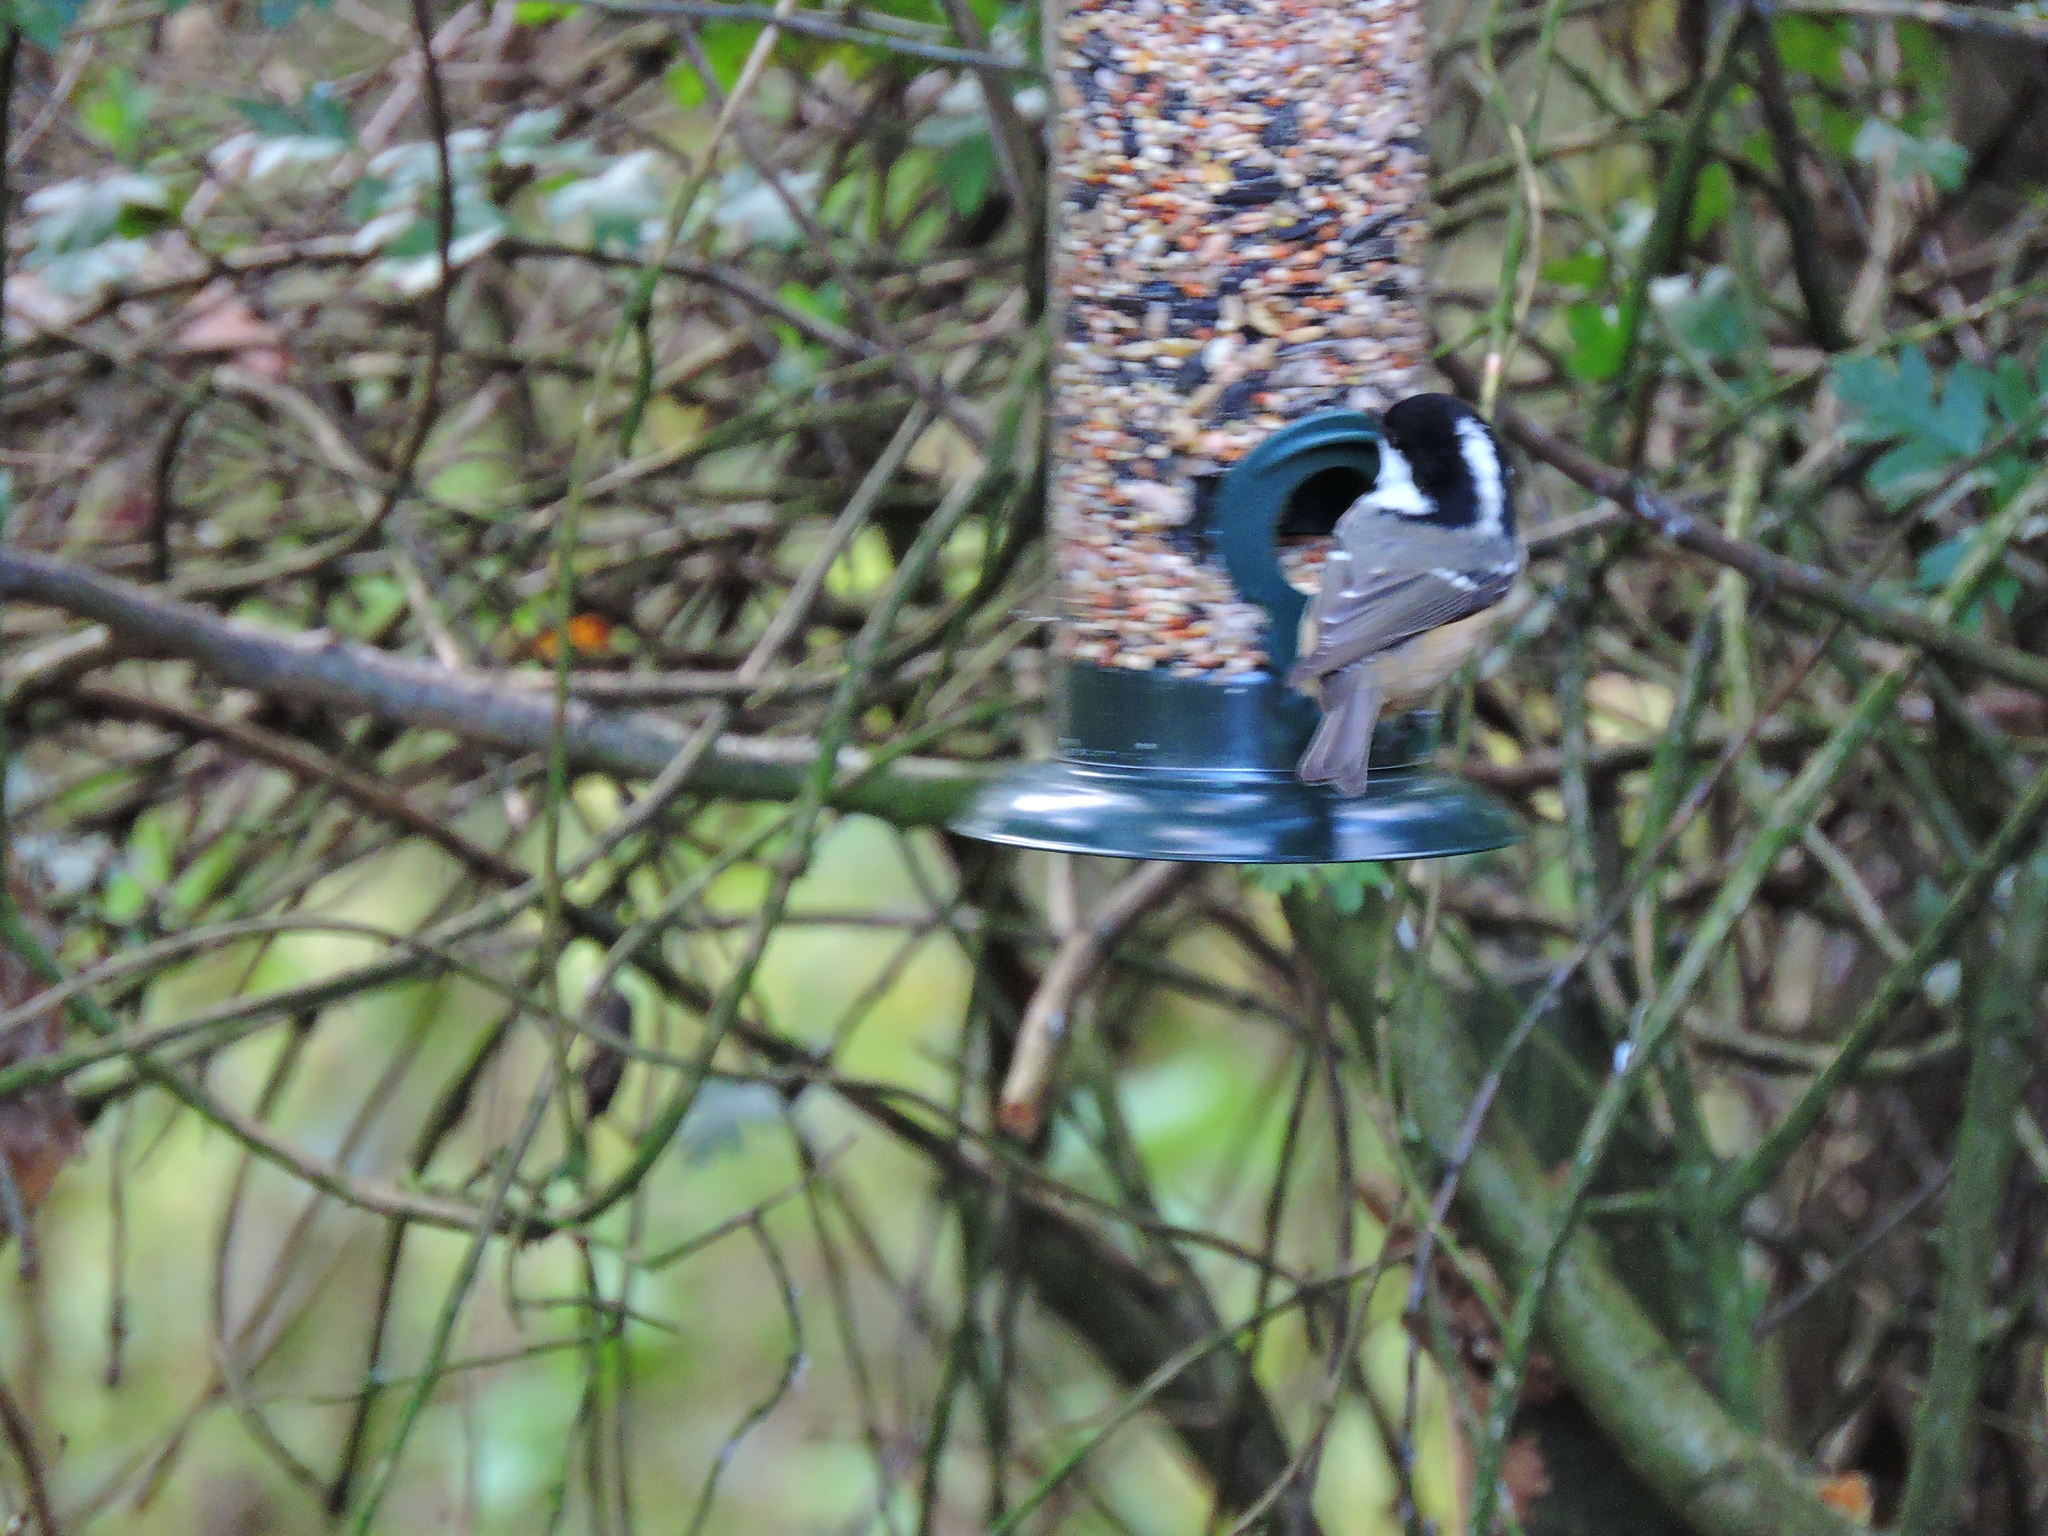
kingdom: Animalia
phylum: Chordata
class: Aves
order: Passeriformes
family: Paridae
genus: Periparus
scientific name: Periparus ater
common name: Coal tit
